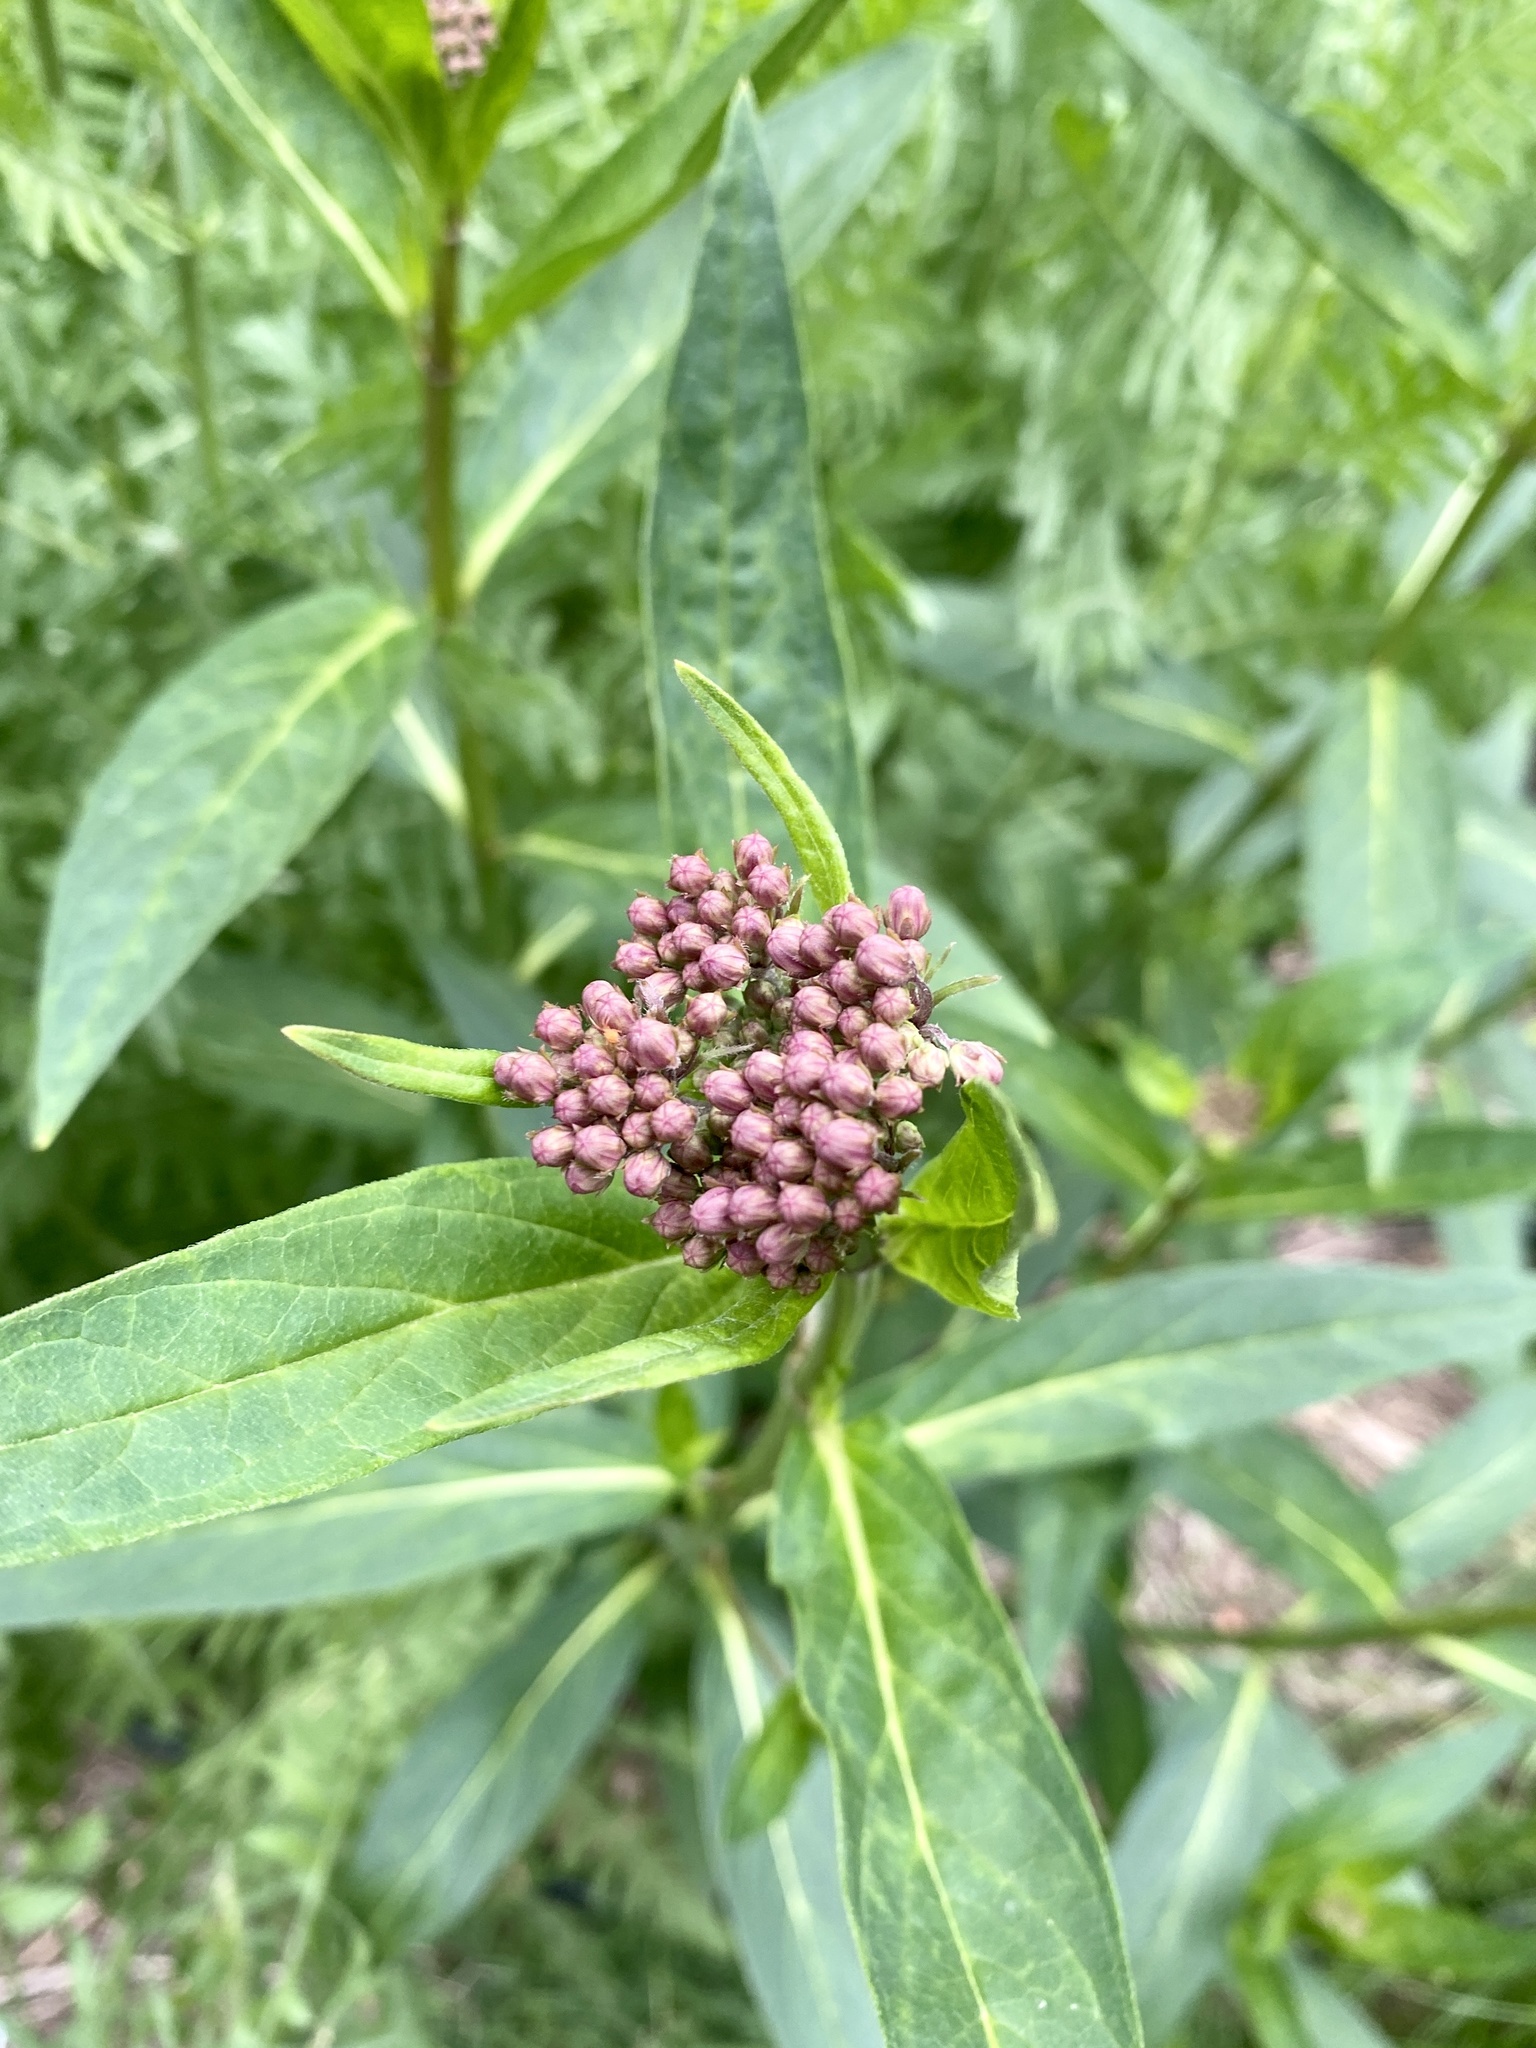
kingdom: Plantae
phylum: Tracheophyta
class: Magnoliopsida
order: Gentianales
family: Apocynaceae
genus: Asclepias
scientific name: Asclepias incarnata
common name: Swamp milkweed
